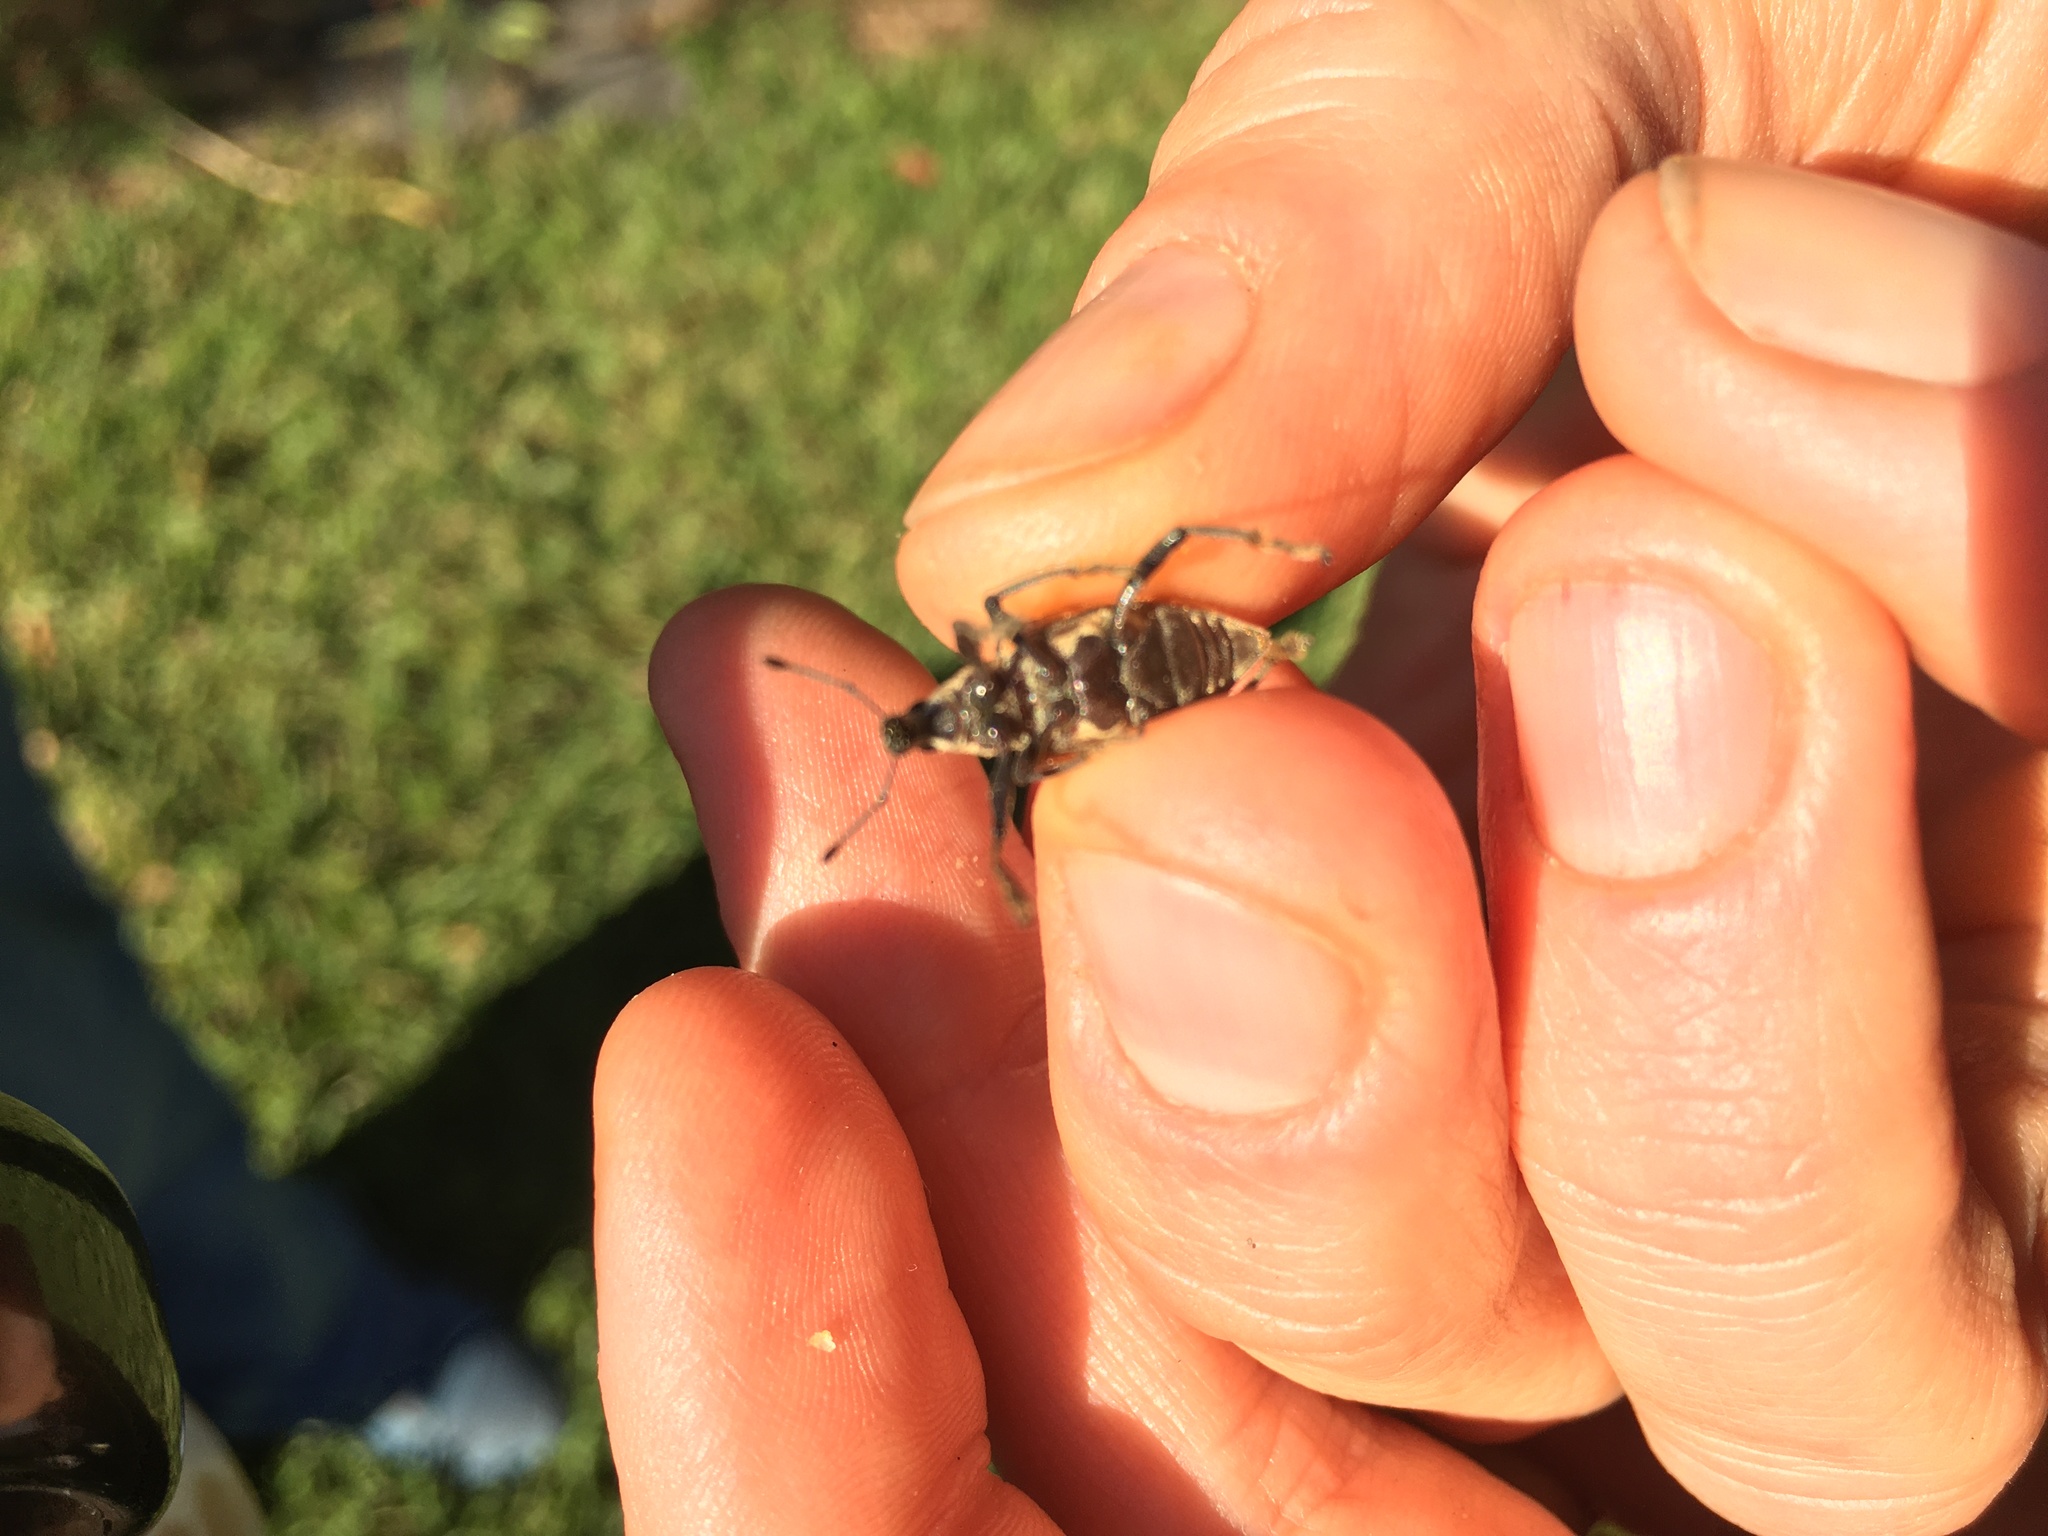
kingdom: Animalia
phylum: Arthropoda
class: Insecta
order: Coleoptera
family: Curculionidae
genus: Diaprepes
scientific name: Diaprepes abbreviatus
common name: Root weevil
